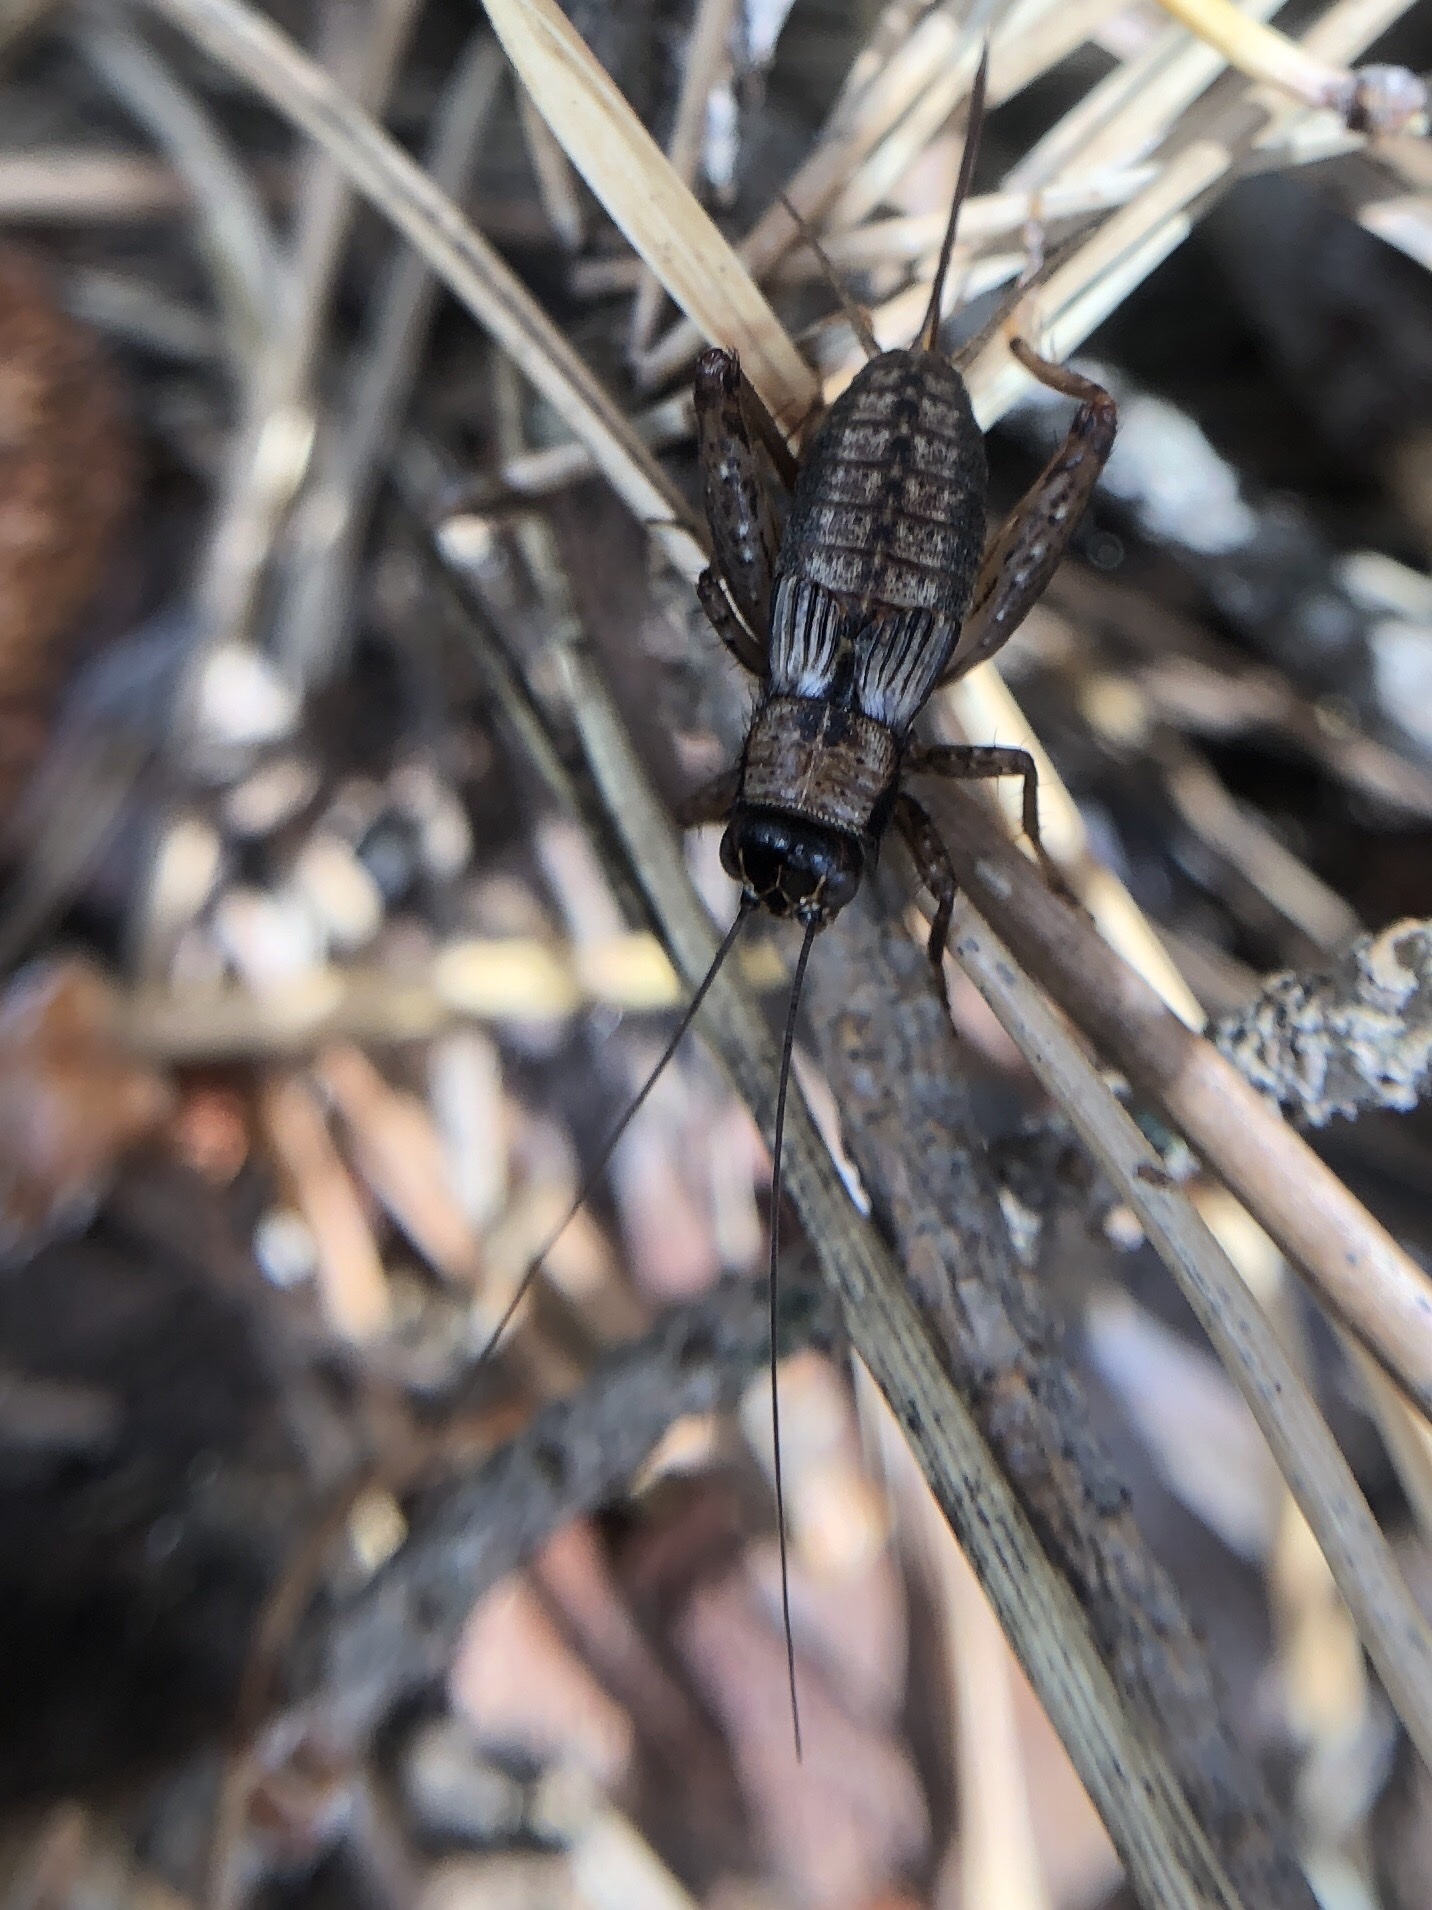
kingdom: Animalia
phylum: Arthropoda
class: Insecta
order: Orthoptera
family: Trigonidiidae
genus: Nemobius
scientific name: Nemobius sylvestris
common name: Wood-cricket
